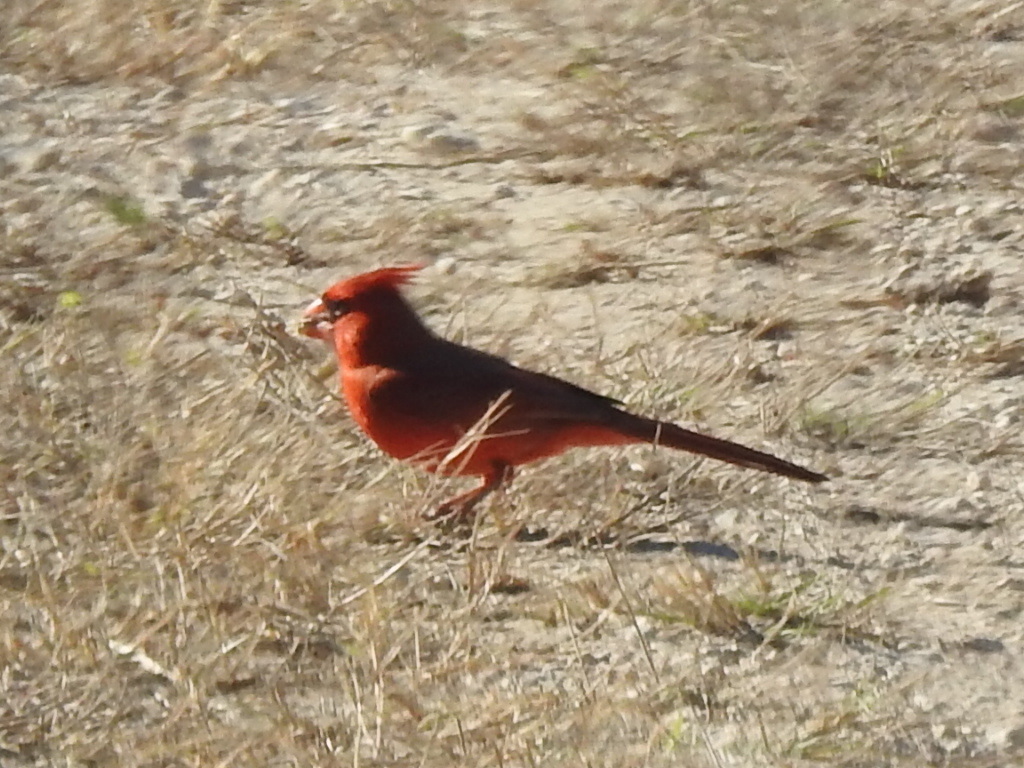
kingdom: Animalia
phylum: Chordata
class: Aves
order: Passeriformes
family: Cardinalidae
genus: Cardinalis
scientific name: Cardinalis cardinalis
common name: Northern cardinal
